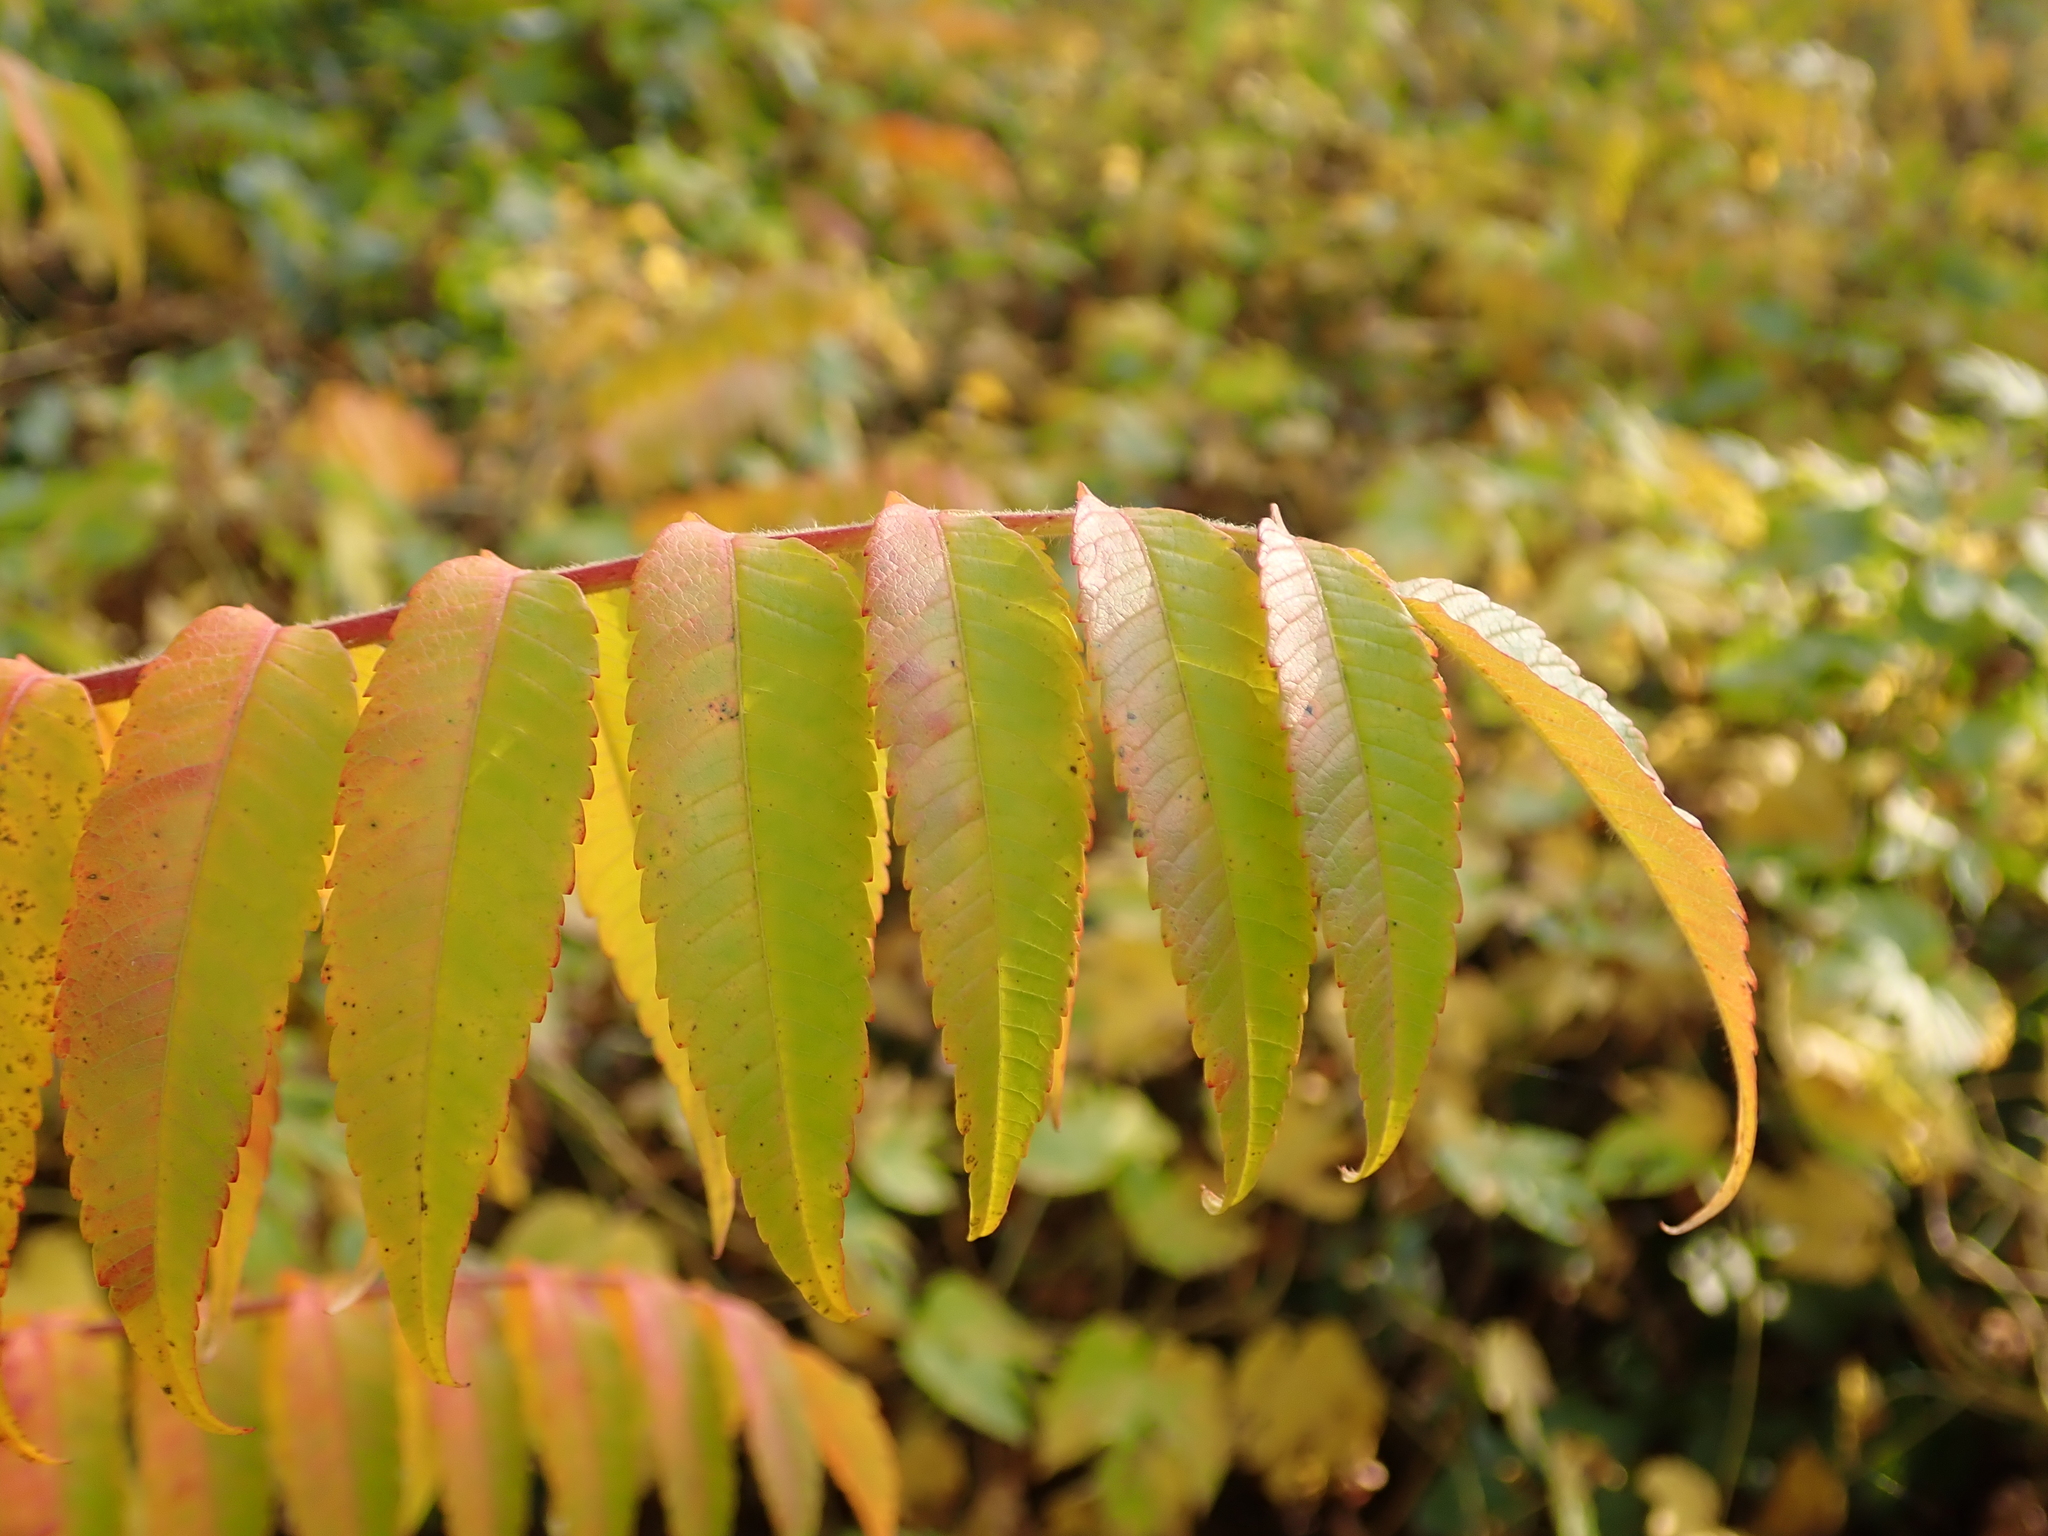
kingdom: Plantae
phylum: Tracheophyta
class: Magnoliopsida
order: Sapindales
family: Anacardiaceae
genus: Rhus
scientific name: Rhus typhina
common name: Staghorn sumac
